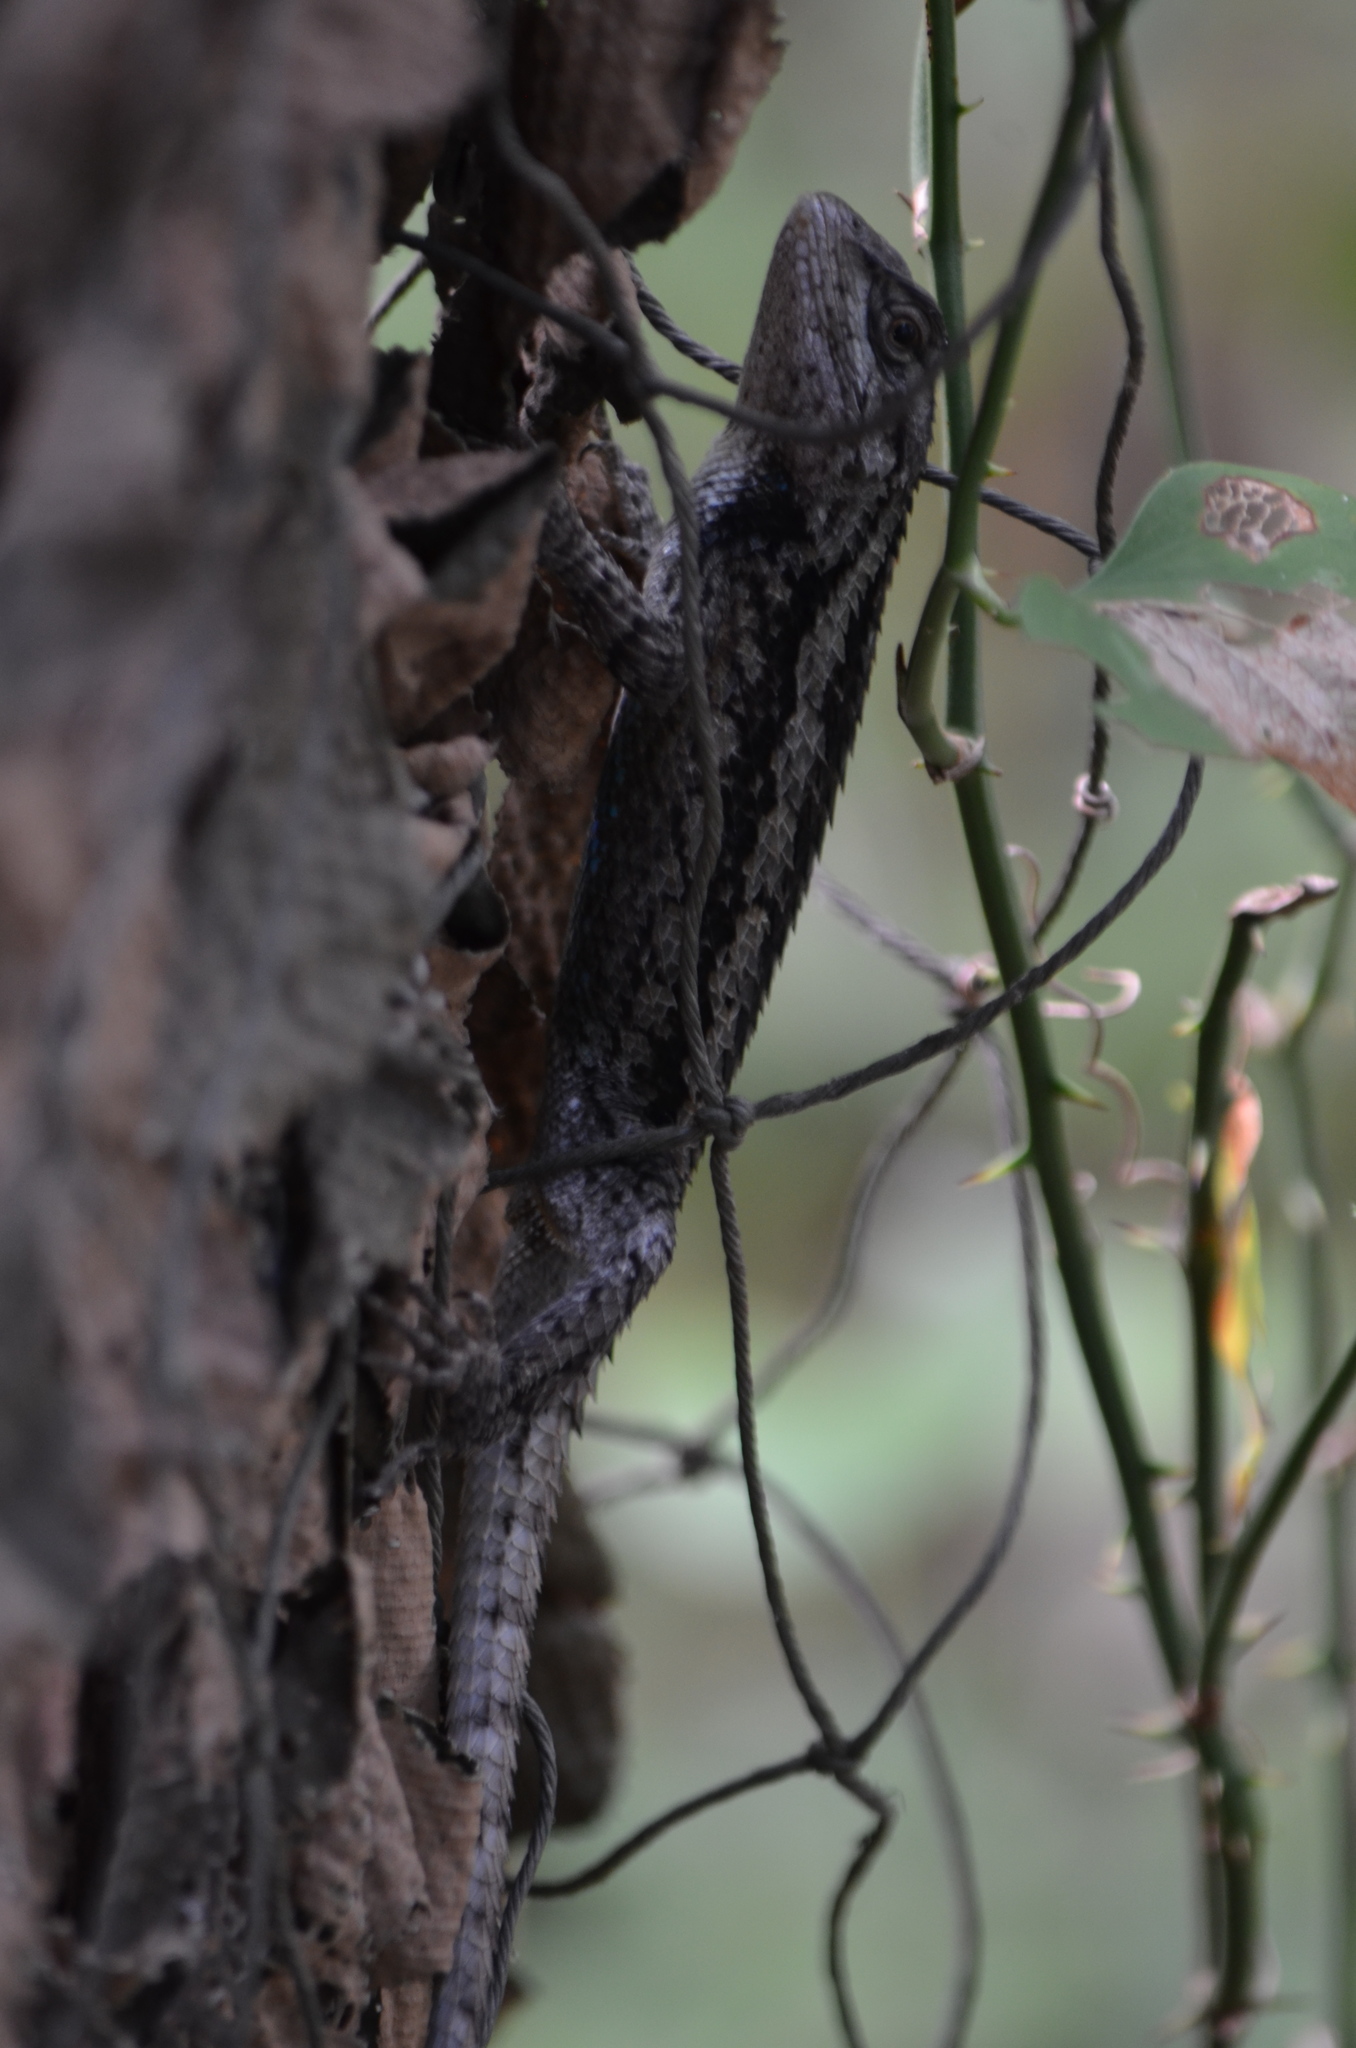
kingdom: Animalia
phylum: Chordata
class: Squamata
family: Phrynosomatidae
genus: Sceloporus
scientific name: Sceloporus olivaceus
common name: Texas spiny lizard
